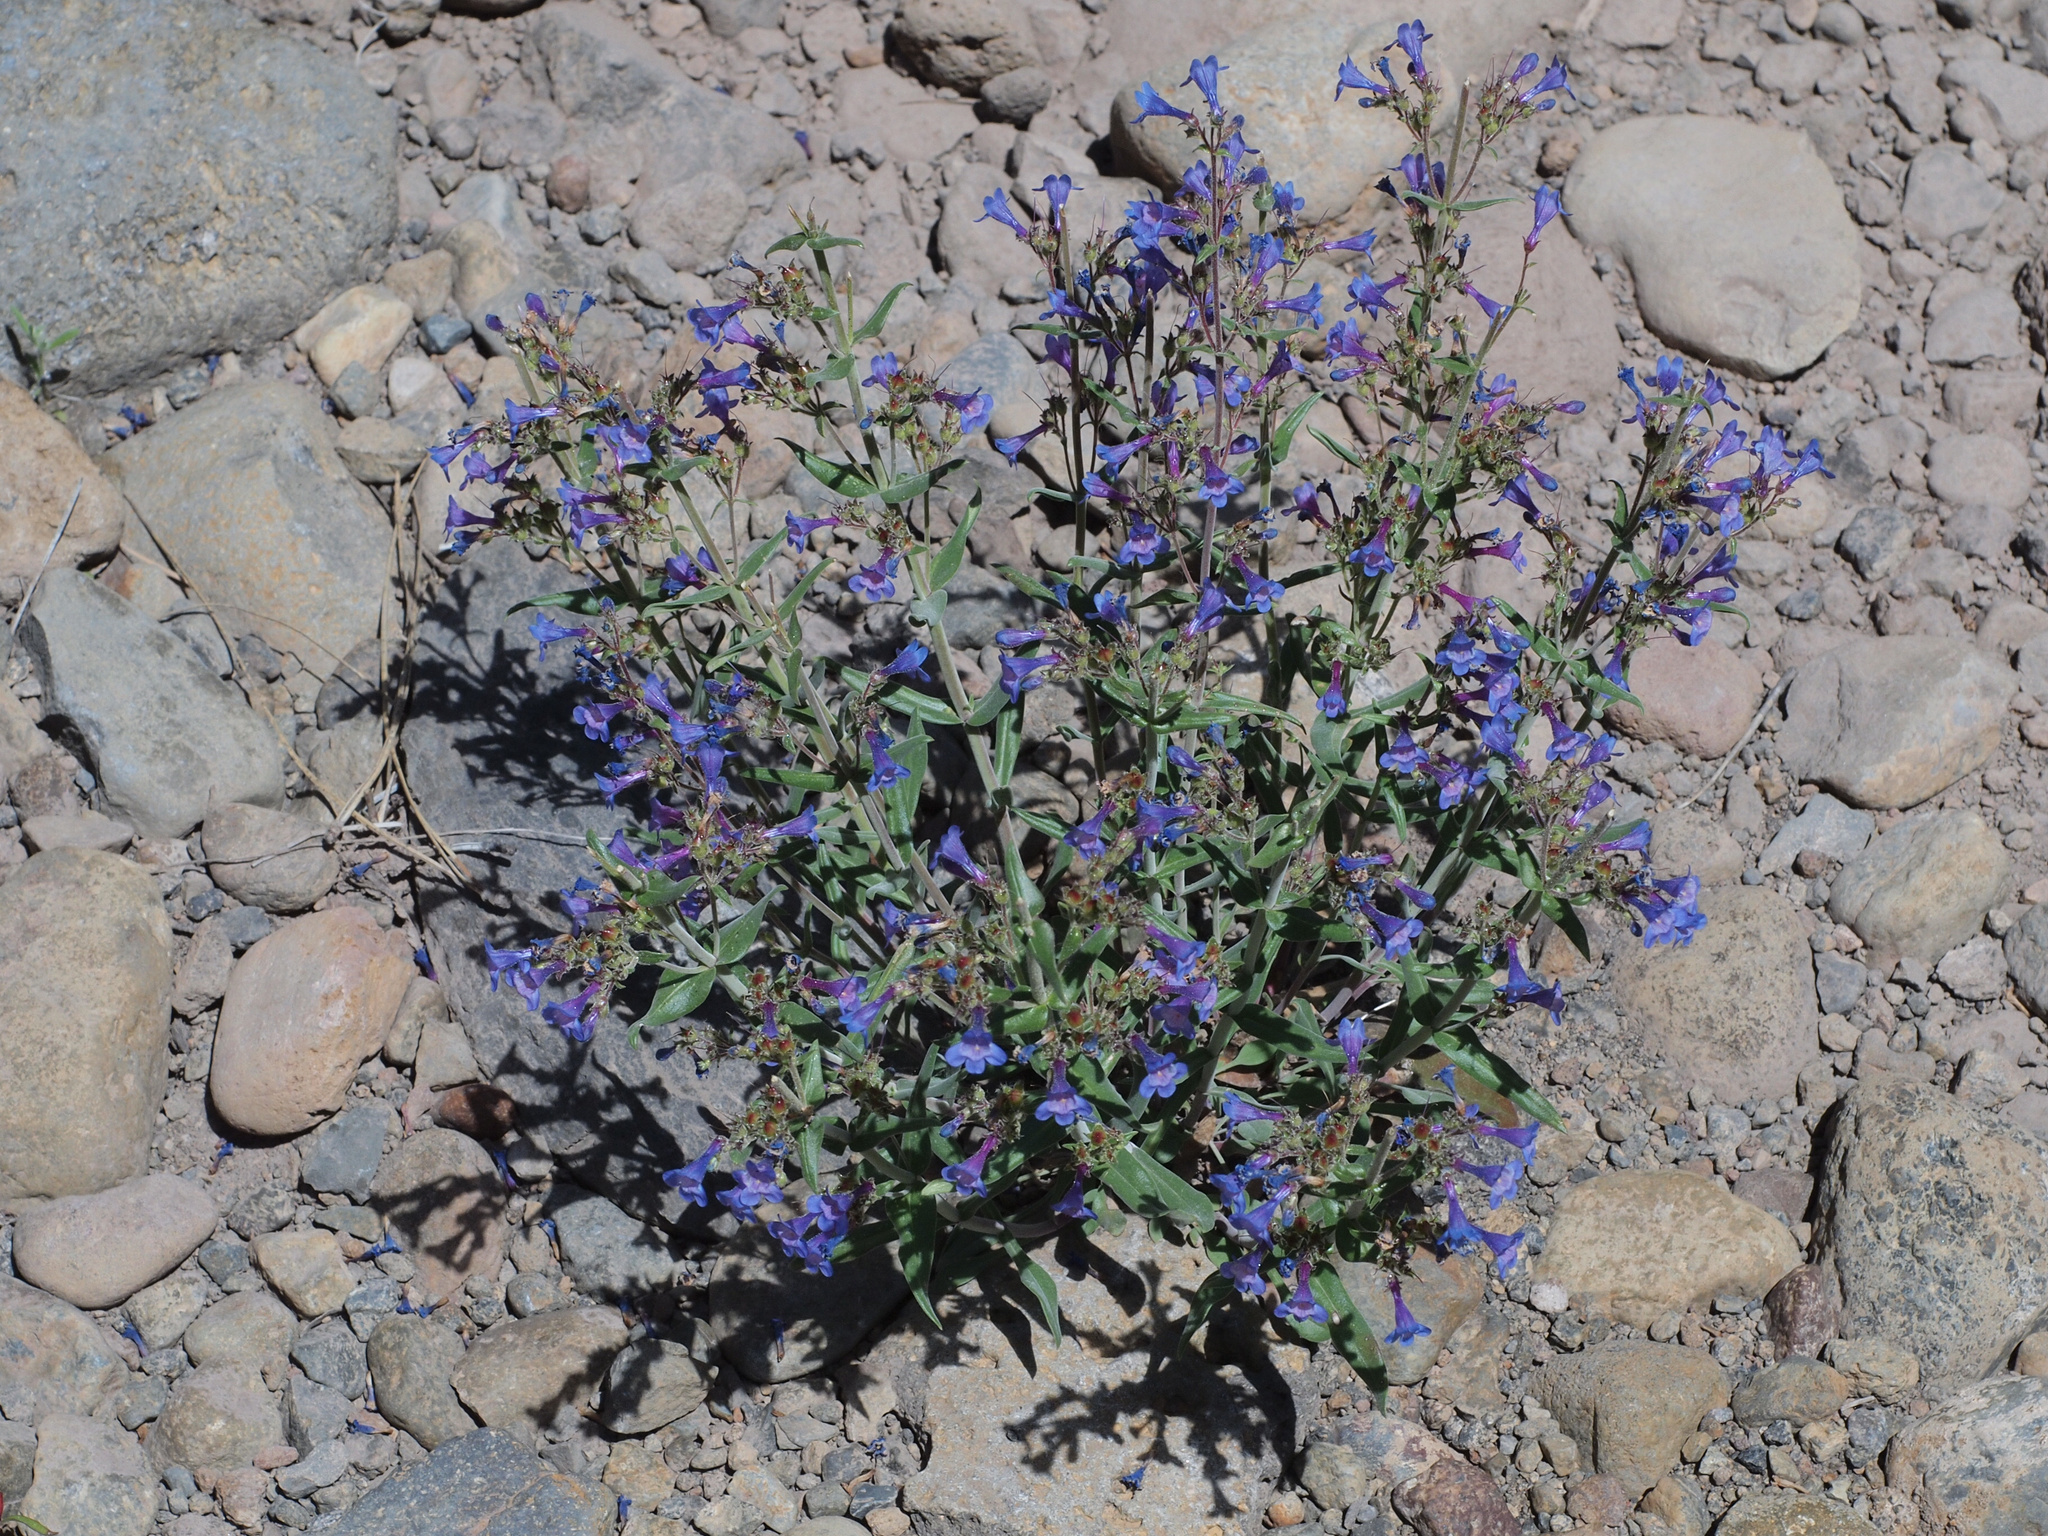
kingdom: Plantae
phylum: Tracheophyta
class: Magnoliopsida
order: Lamiales
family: Plantaginaceae
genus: Penstemon
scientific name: Penstemon humilis
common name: Low penstemon
